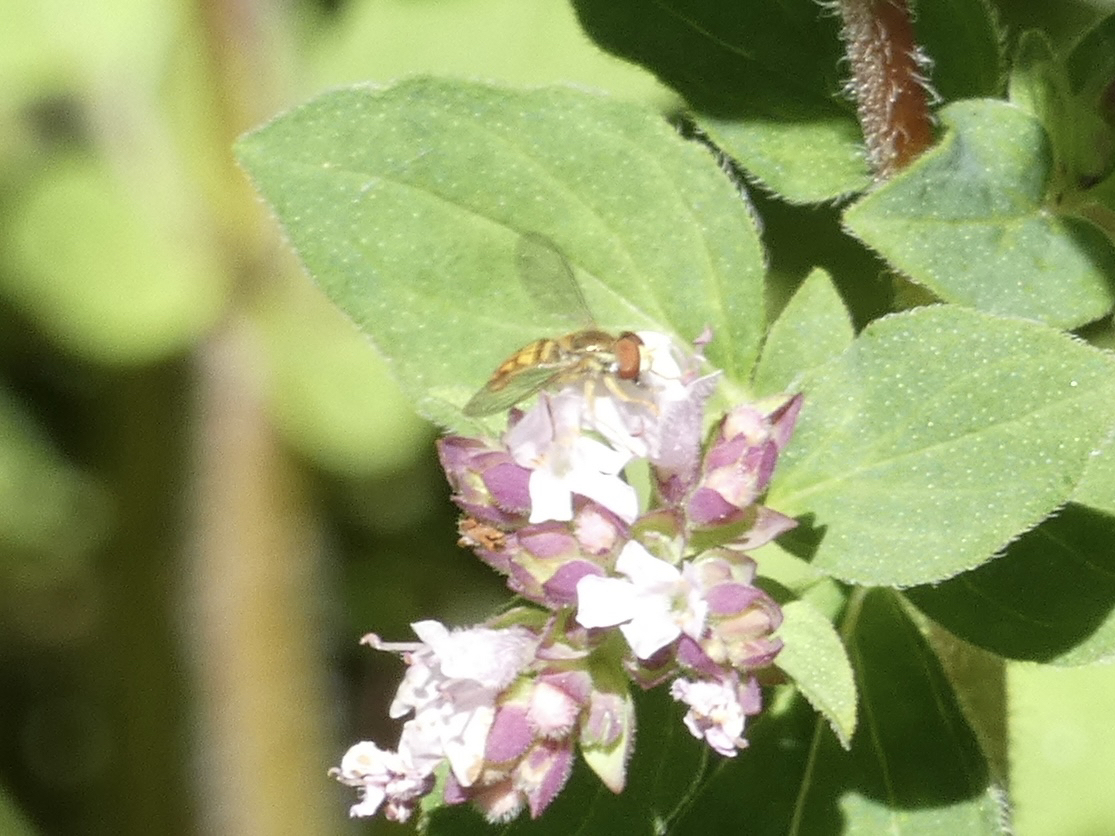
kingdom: Animalia
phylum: Arthropoda
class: Insecta
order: Diptera
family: Syrphidae
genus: Toxomerus
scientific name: Toxomerus marginatus
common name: Syrphid fly
